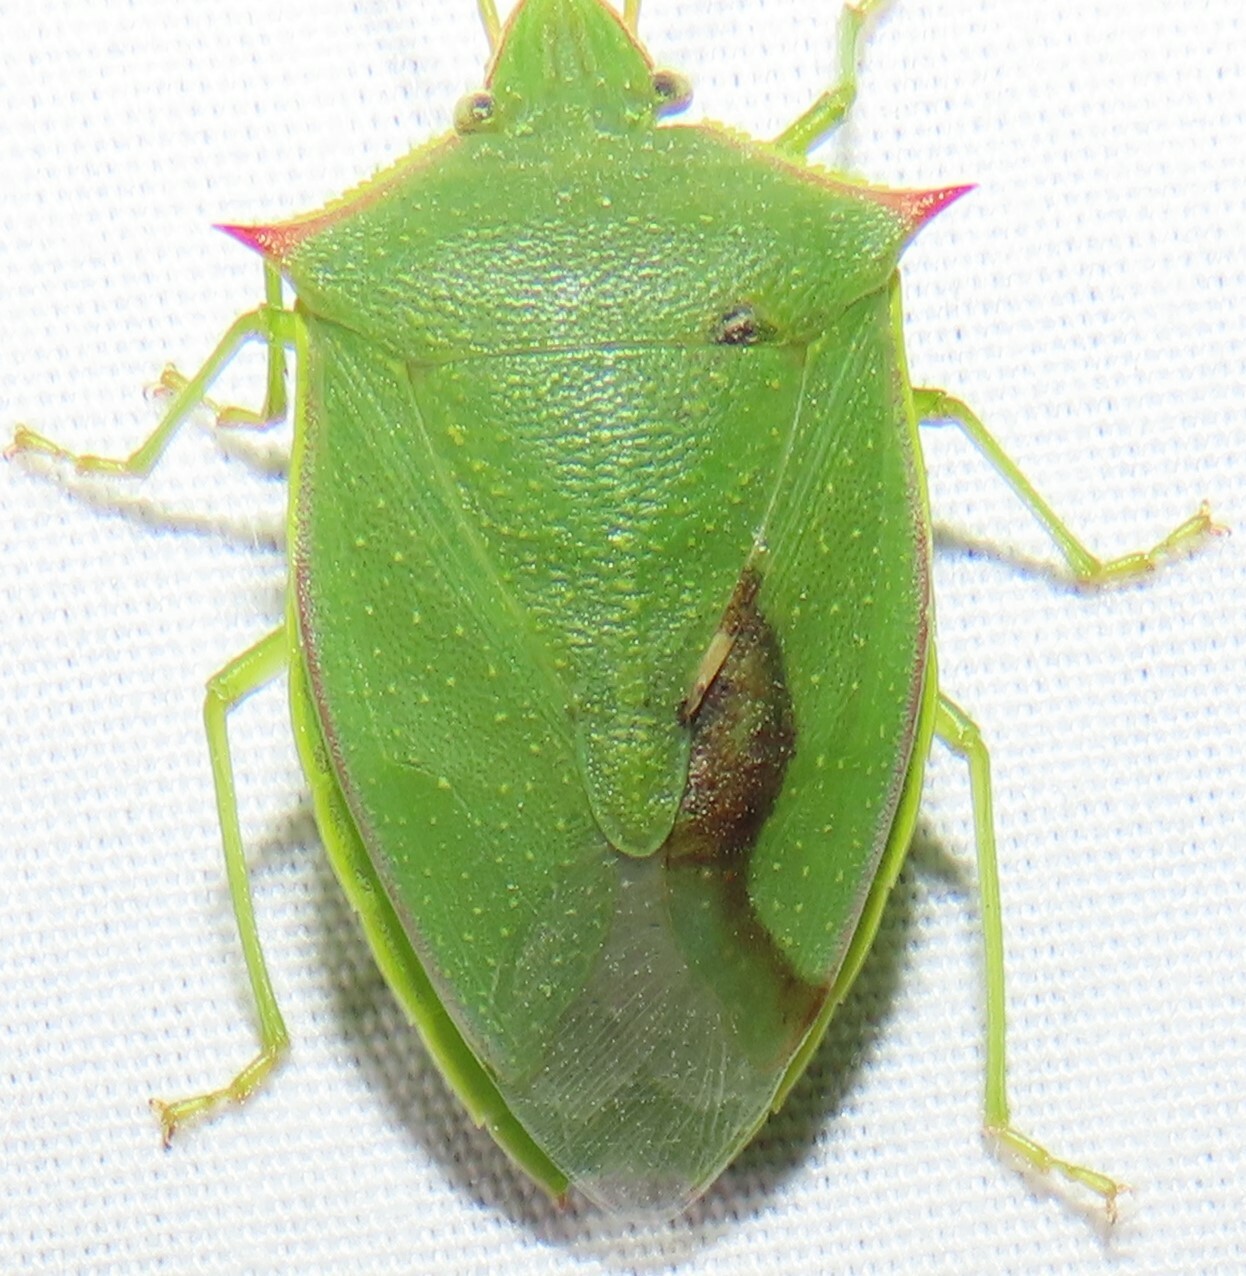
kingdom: Animalia
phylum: Arthropoda
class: Insecta
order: Hemiptera
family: Pentatomidae
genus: Loxa
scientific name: Loxa flavicollis
